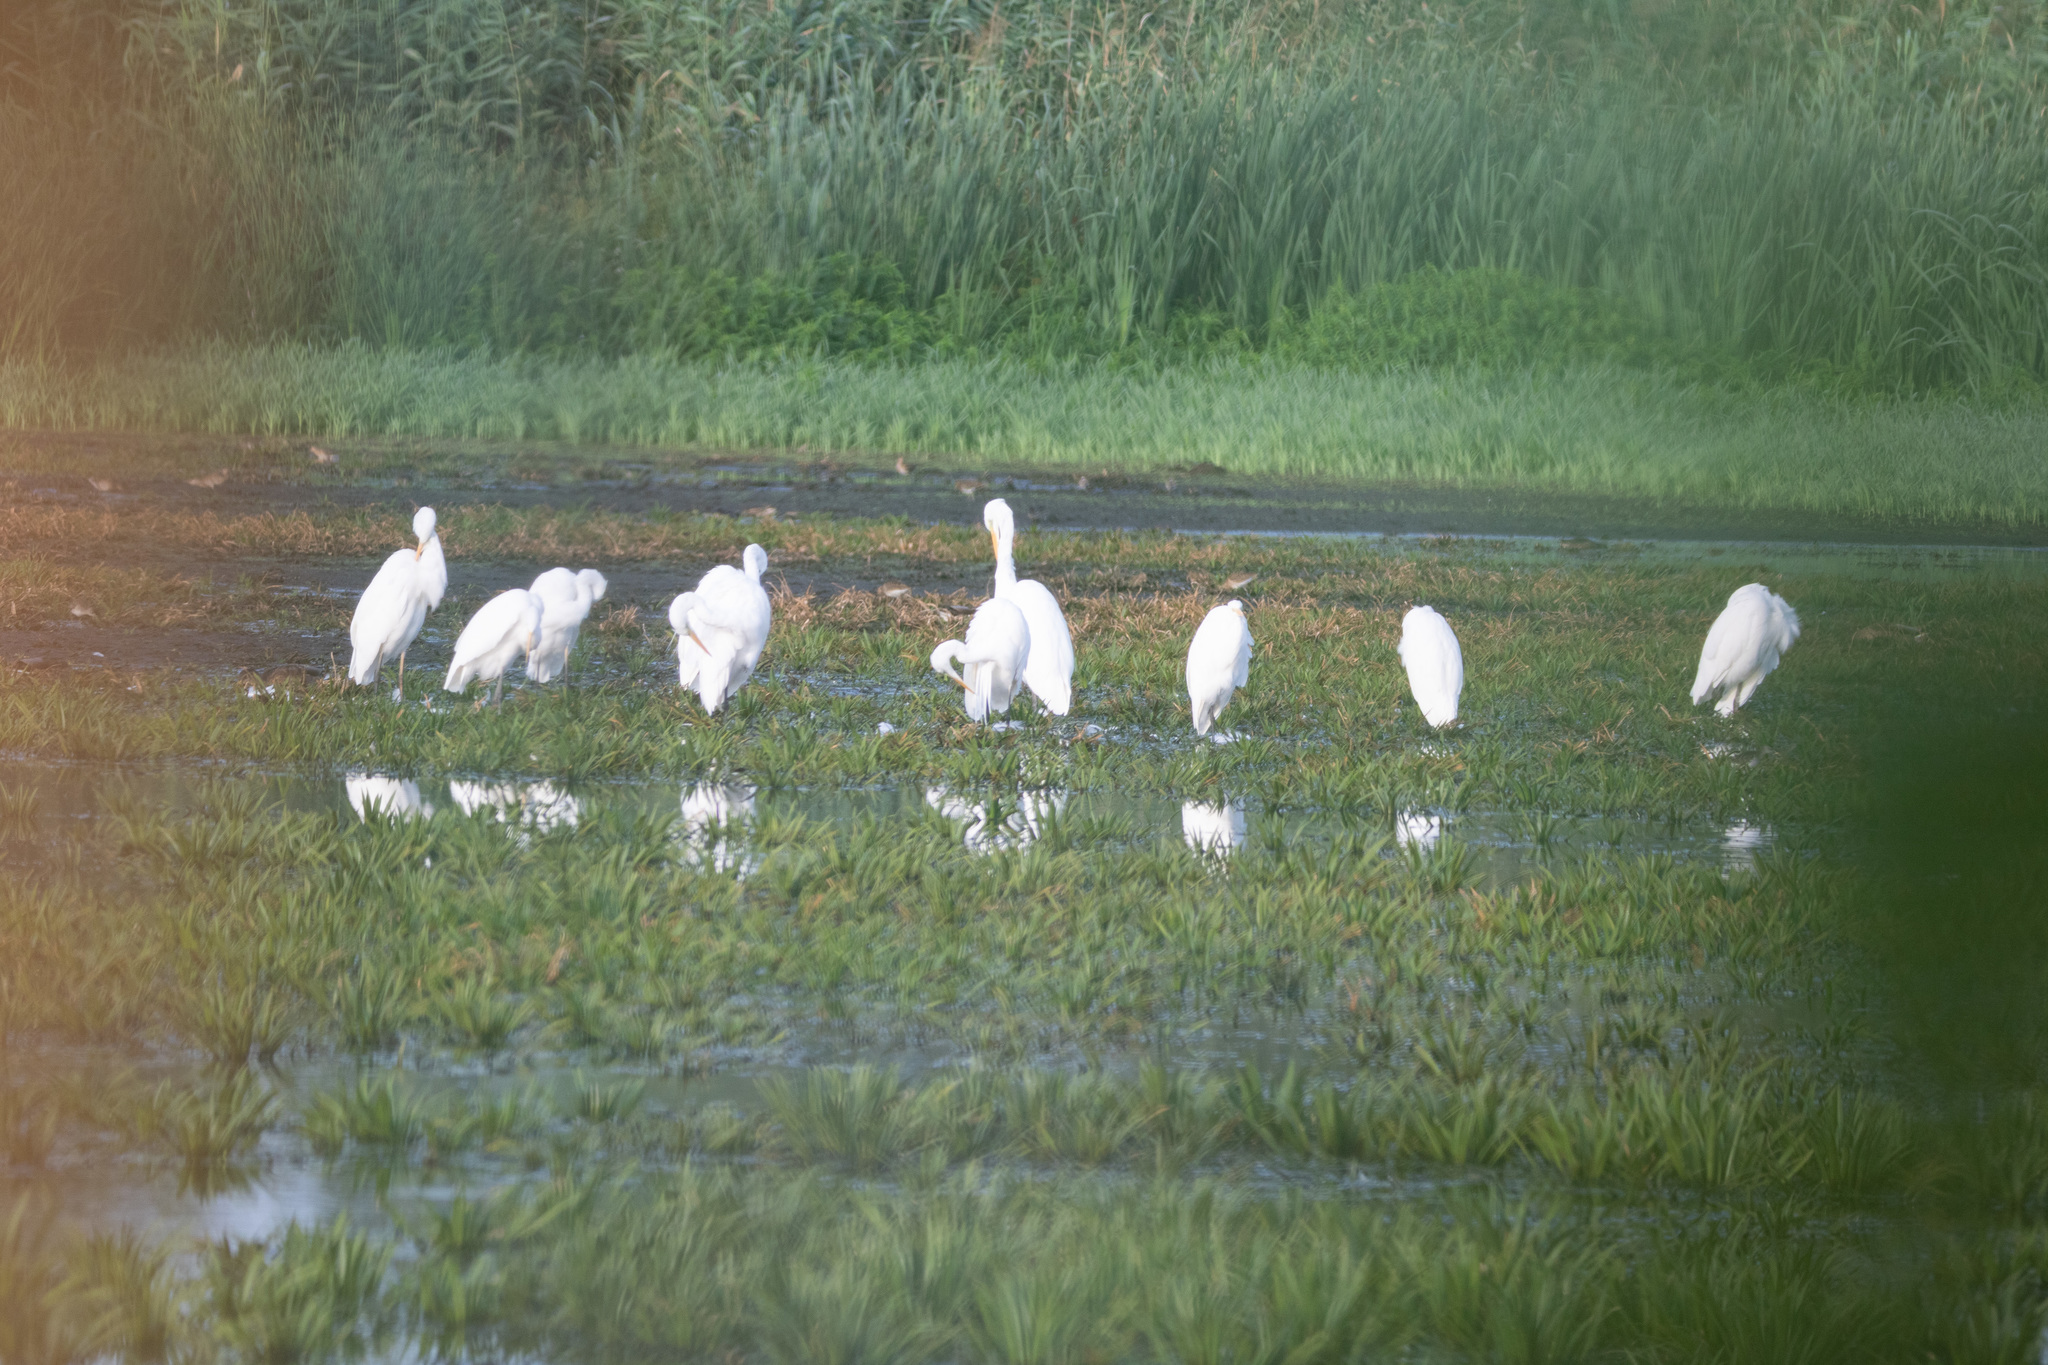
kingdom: Animalia
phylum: Chordata
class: Aves
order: Pelecaniformes
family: Ardeidae
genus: Ardea
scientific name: Ardea alba
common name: Great egret
